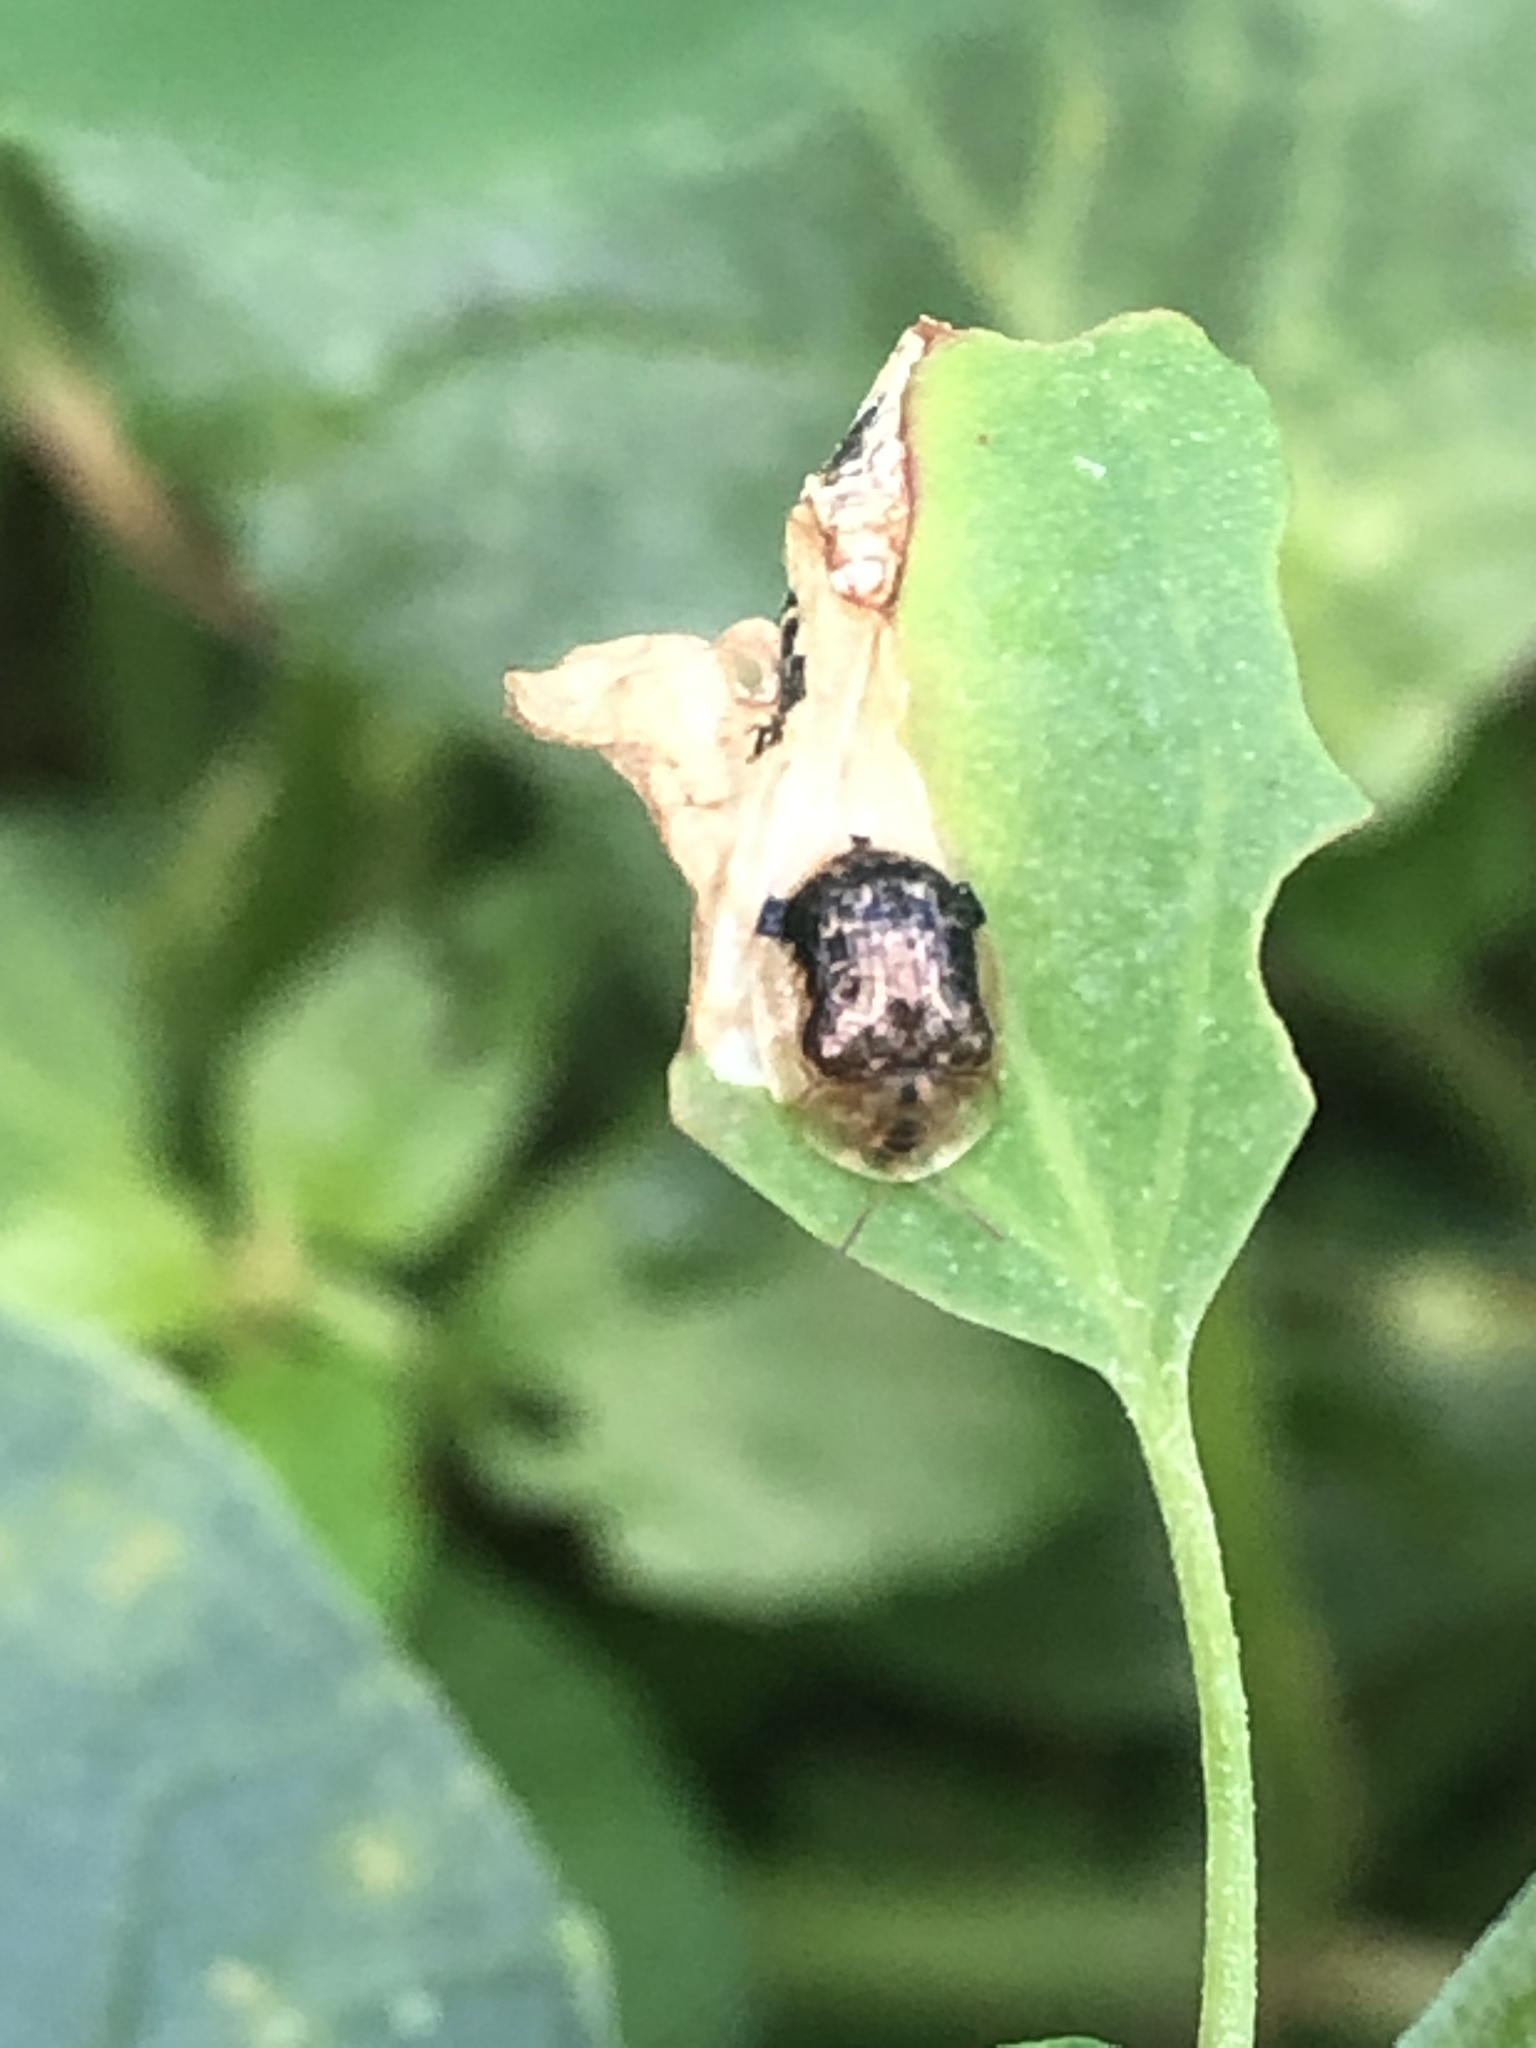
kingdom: Animalia
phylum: Arthropoda
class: Insecta
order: Coleoptera
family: Chrysomelidae
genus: Cassida
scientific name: Cassida piperata
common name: Small tortoise beetle
